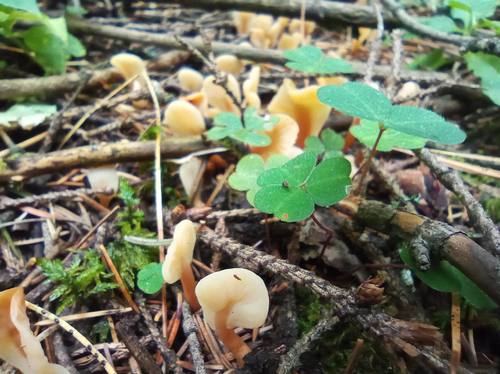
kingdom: Fungi
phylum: Ascomycota
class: Leotiomycetes
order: Rhytismatales
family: Cudoniaceae
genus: Spathularia
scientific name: Spathularia rufa
